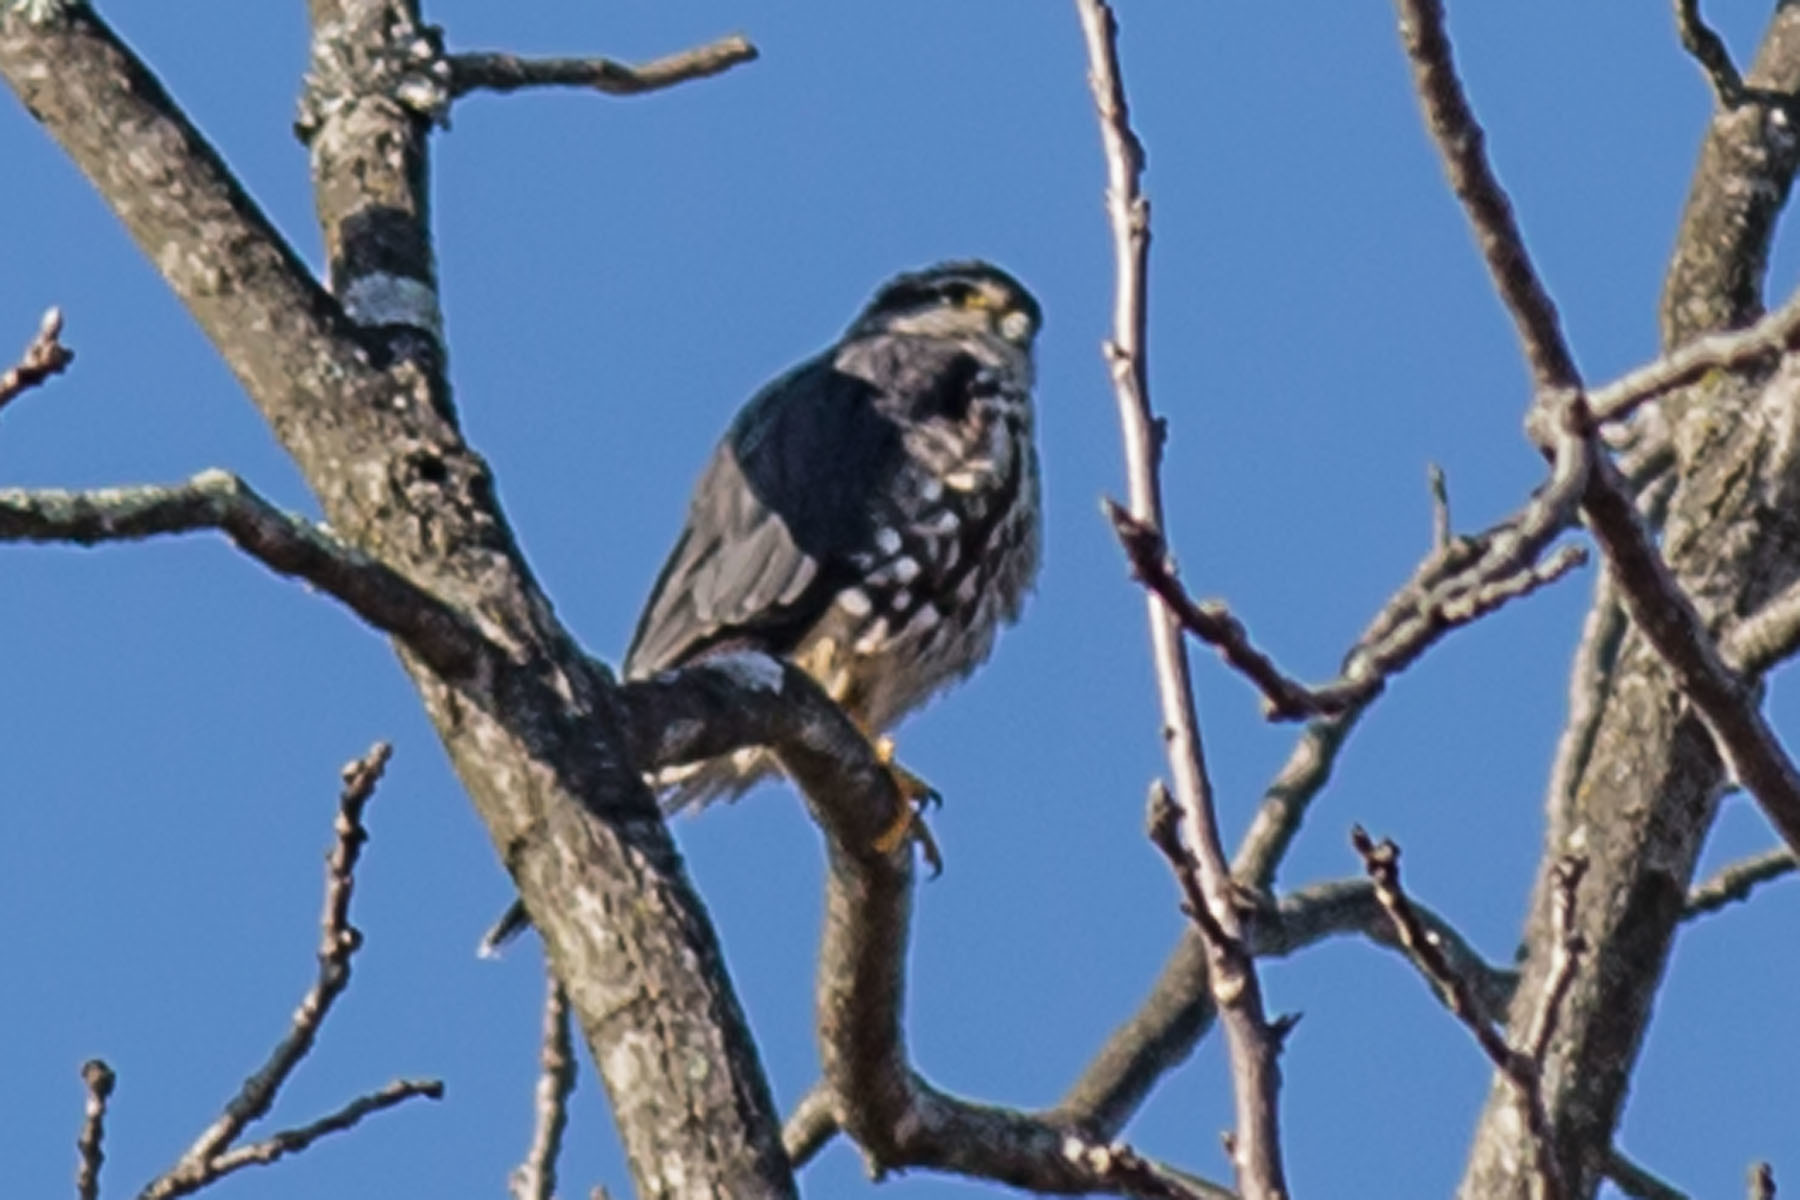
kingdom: Animalia
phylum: Chordata
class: Aves
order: Falconiformes
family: Falconidae
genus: Falco
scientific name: Falco columbarius
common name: Merlin
